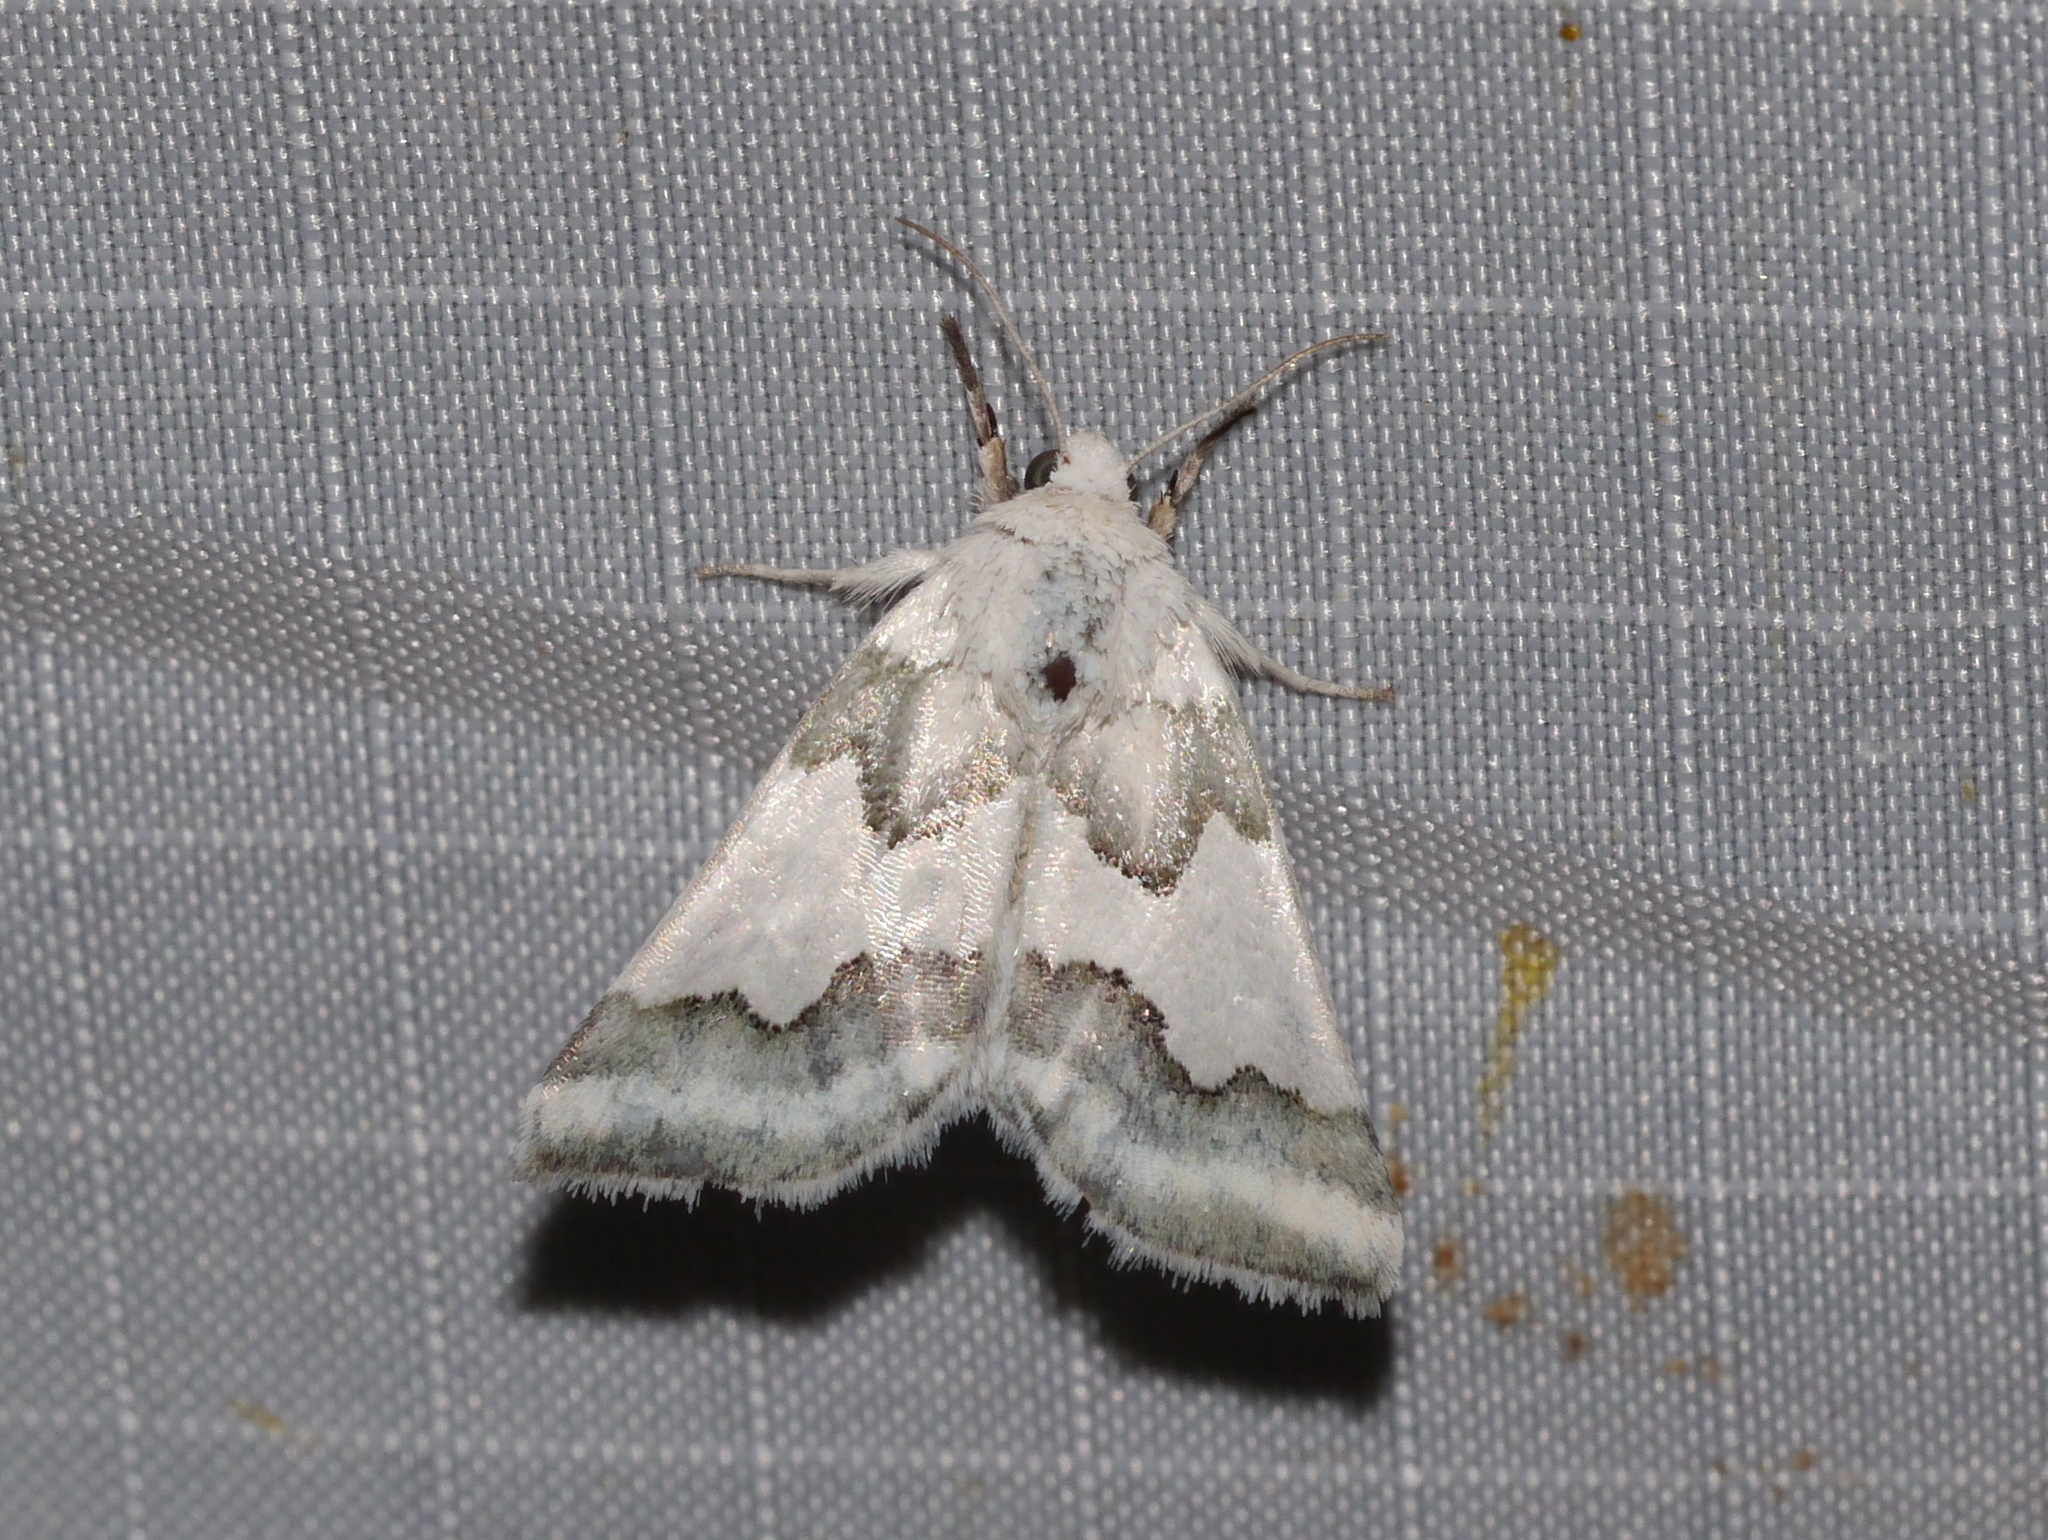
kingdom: Animalia
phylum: Arthropoda
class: Insecta
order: Lepidoptera
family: Noctuidae
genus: Schinia
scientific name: Schinia hulstia
